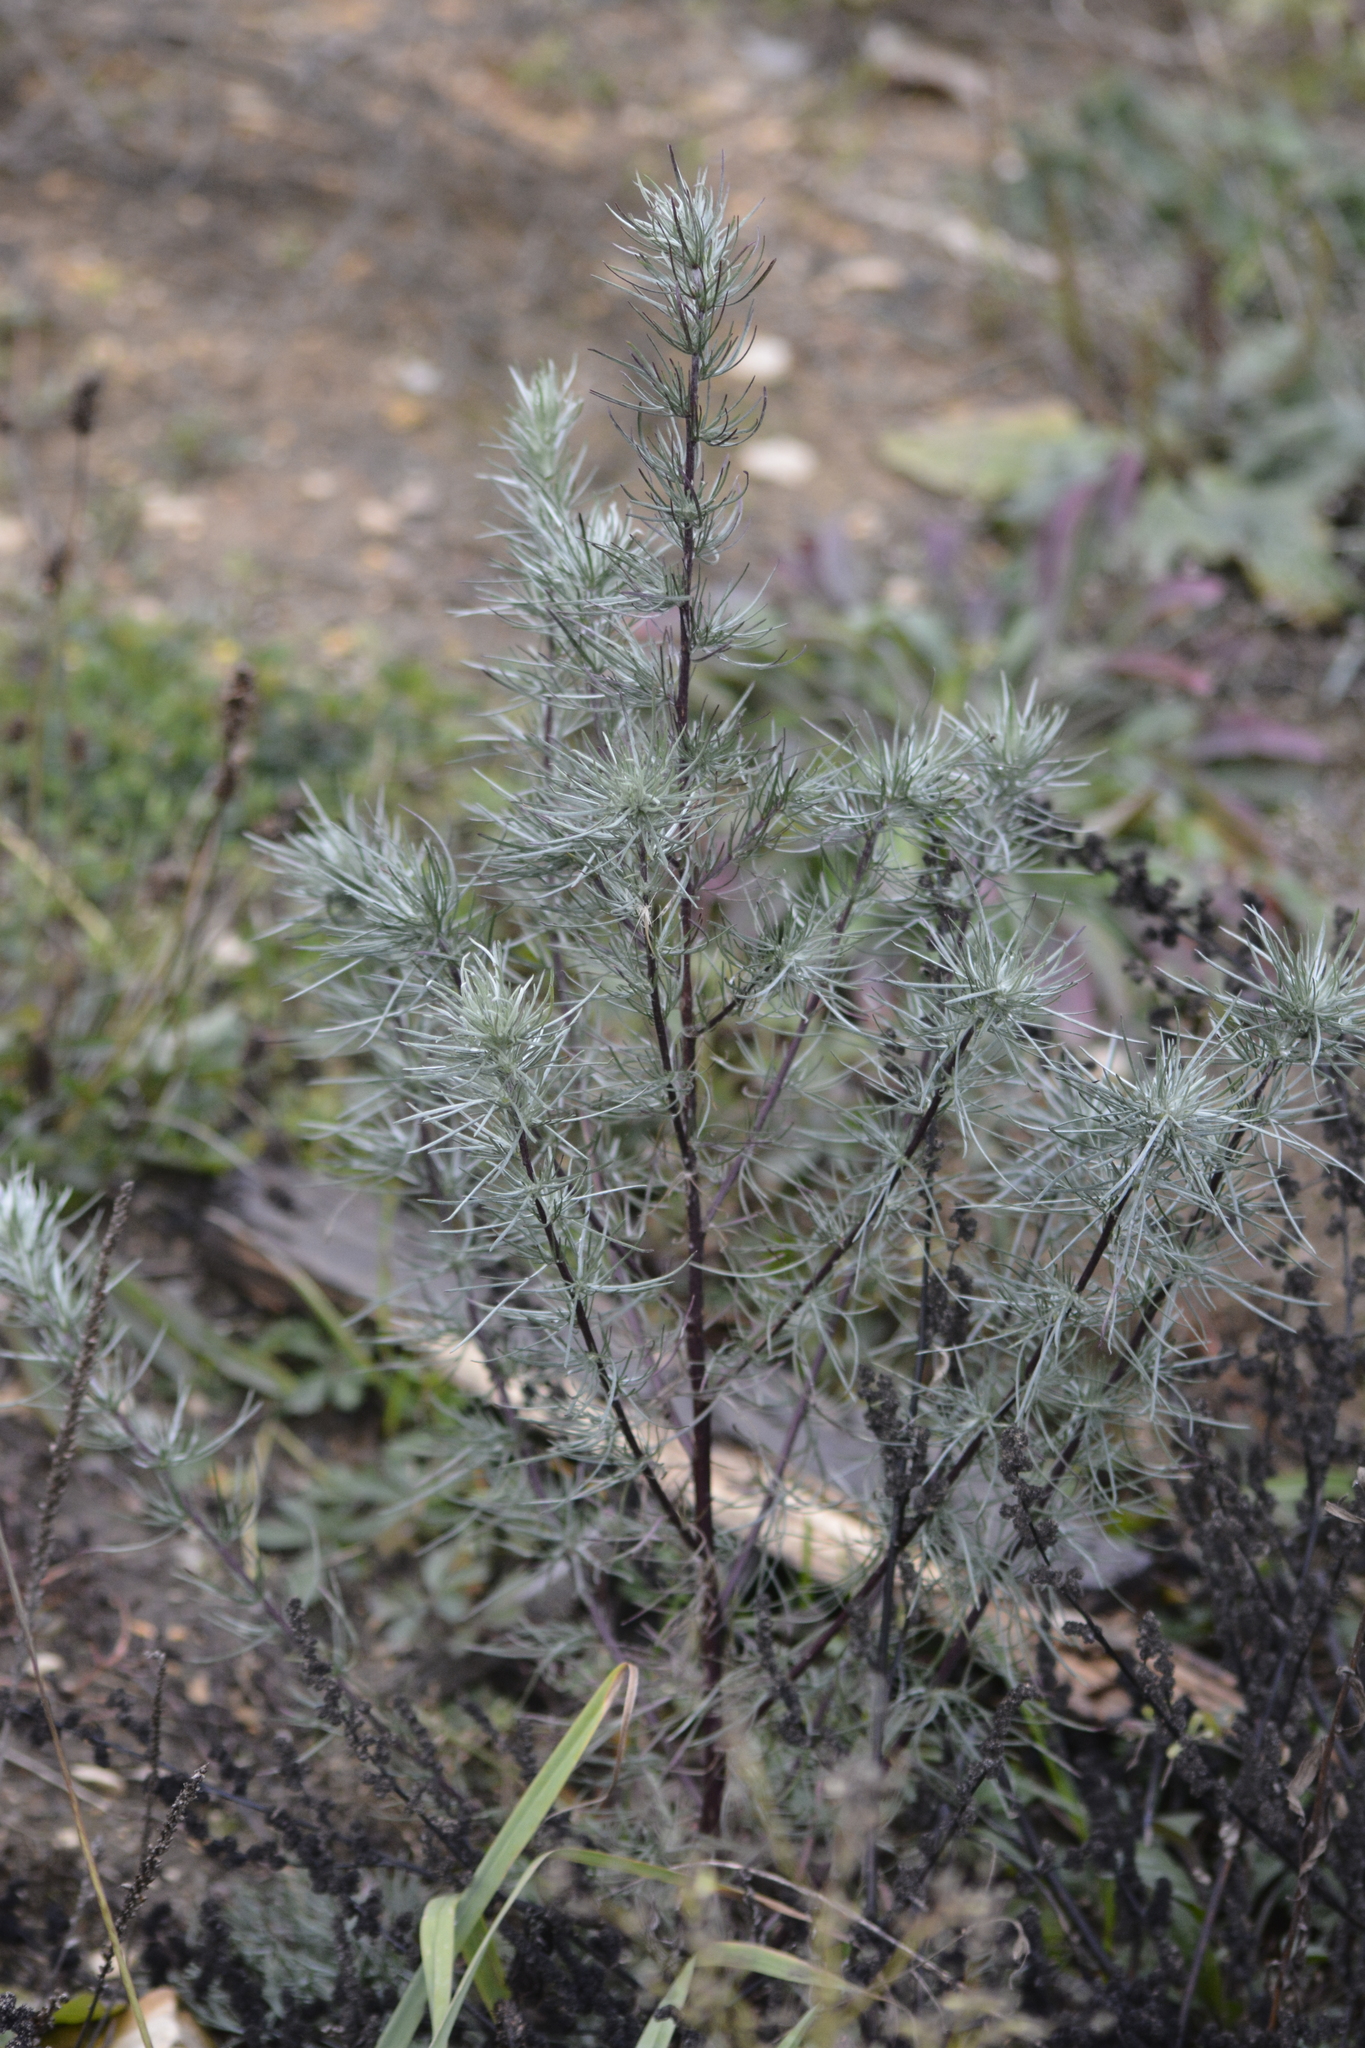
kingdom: Plantae
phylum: Tracheophyta
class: Magnoliopsida
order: Asterales
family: Asteraceae
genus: Artemisia
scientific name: Artemisia campestris
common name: Field wormwood
